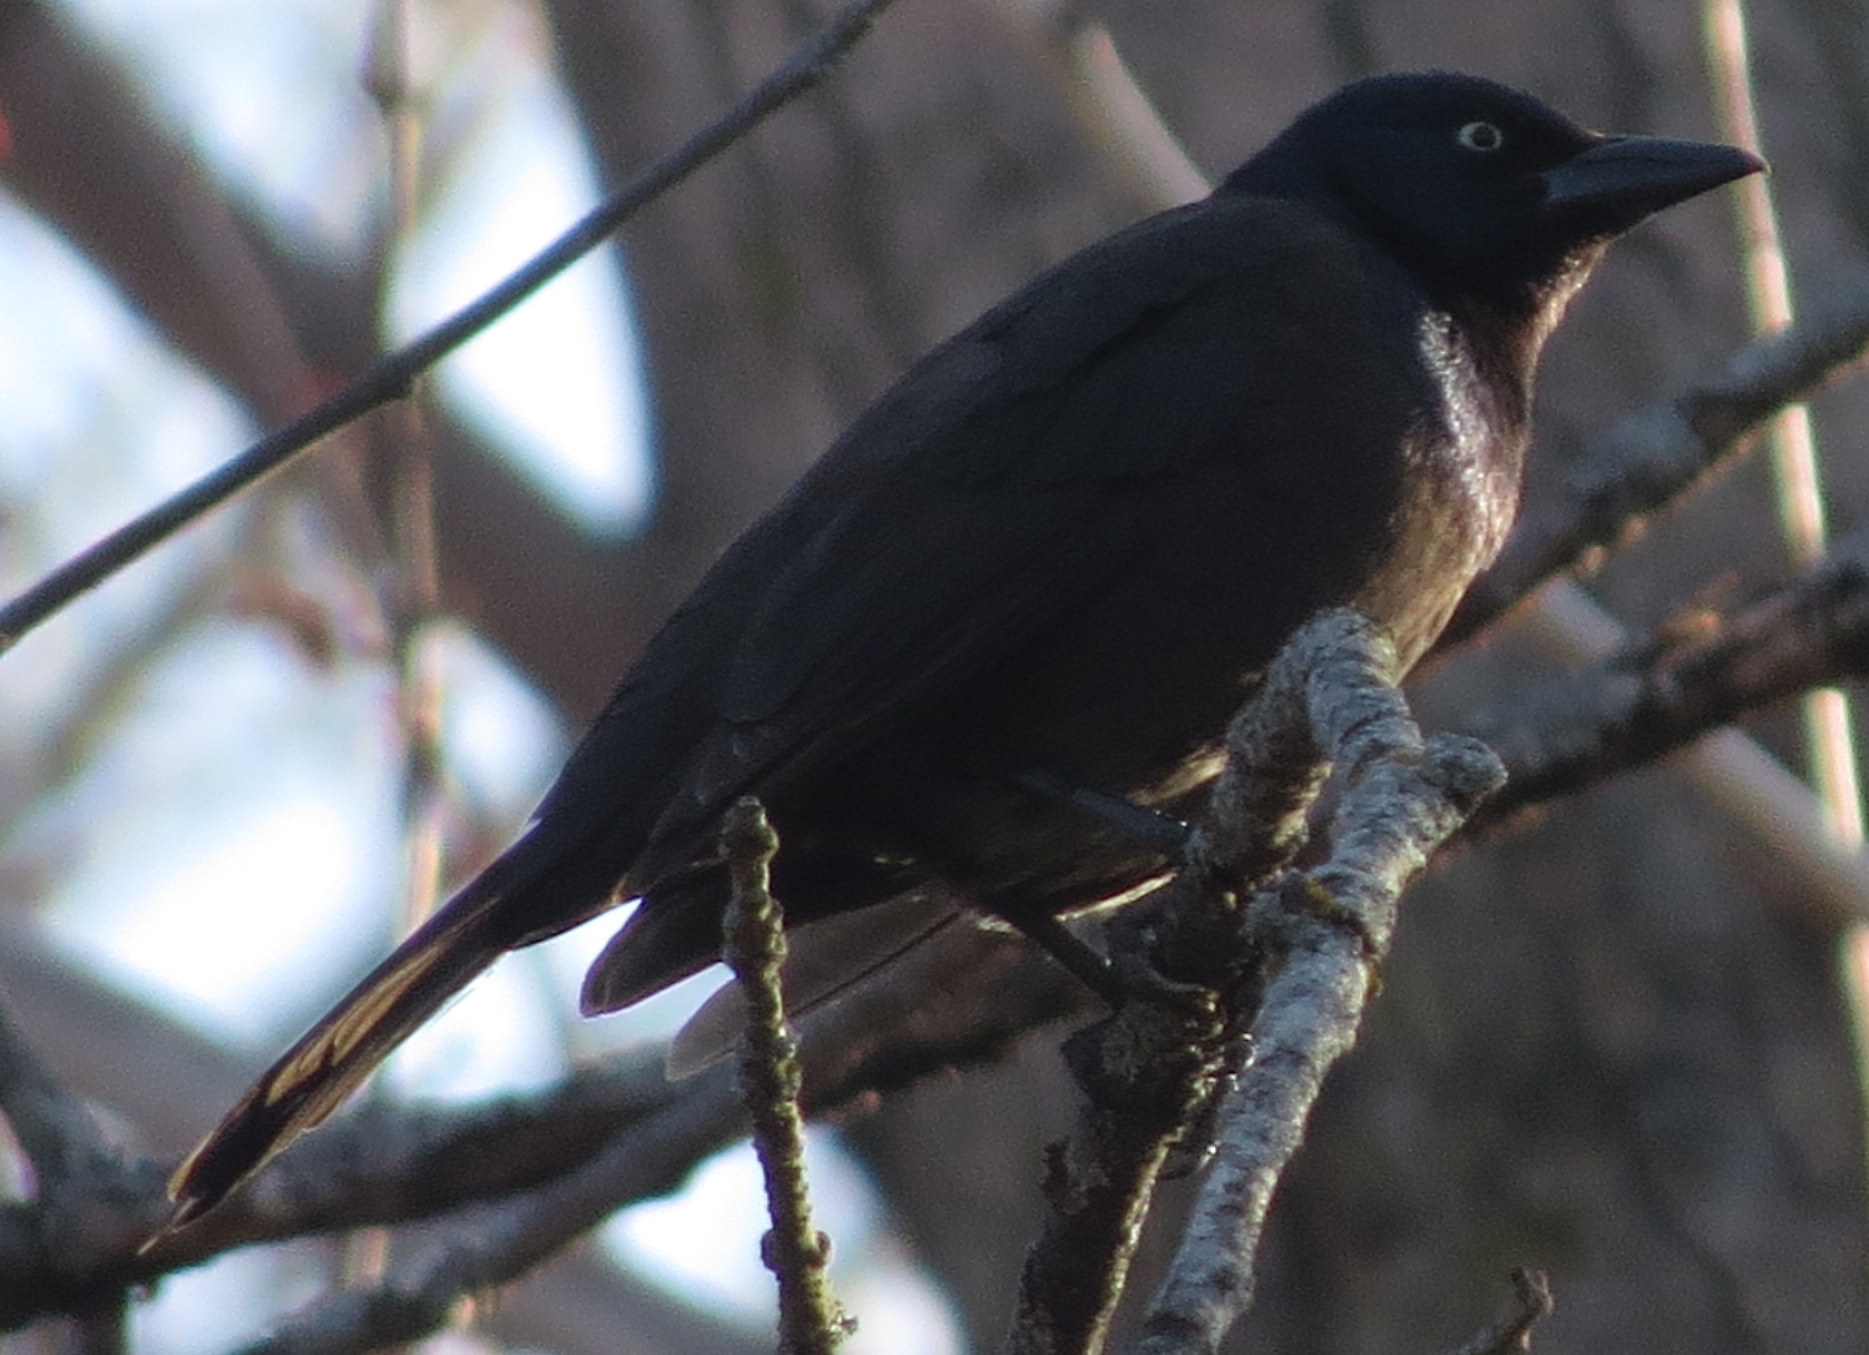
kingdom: Animalia
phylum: Chordata
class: Aves
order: Passeriformes
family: Icteridae
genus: Quiscalus
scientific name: Quiscalus quiscula
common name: Common grackle
